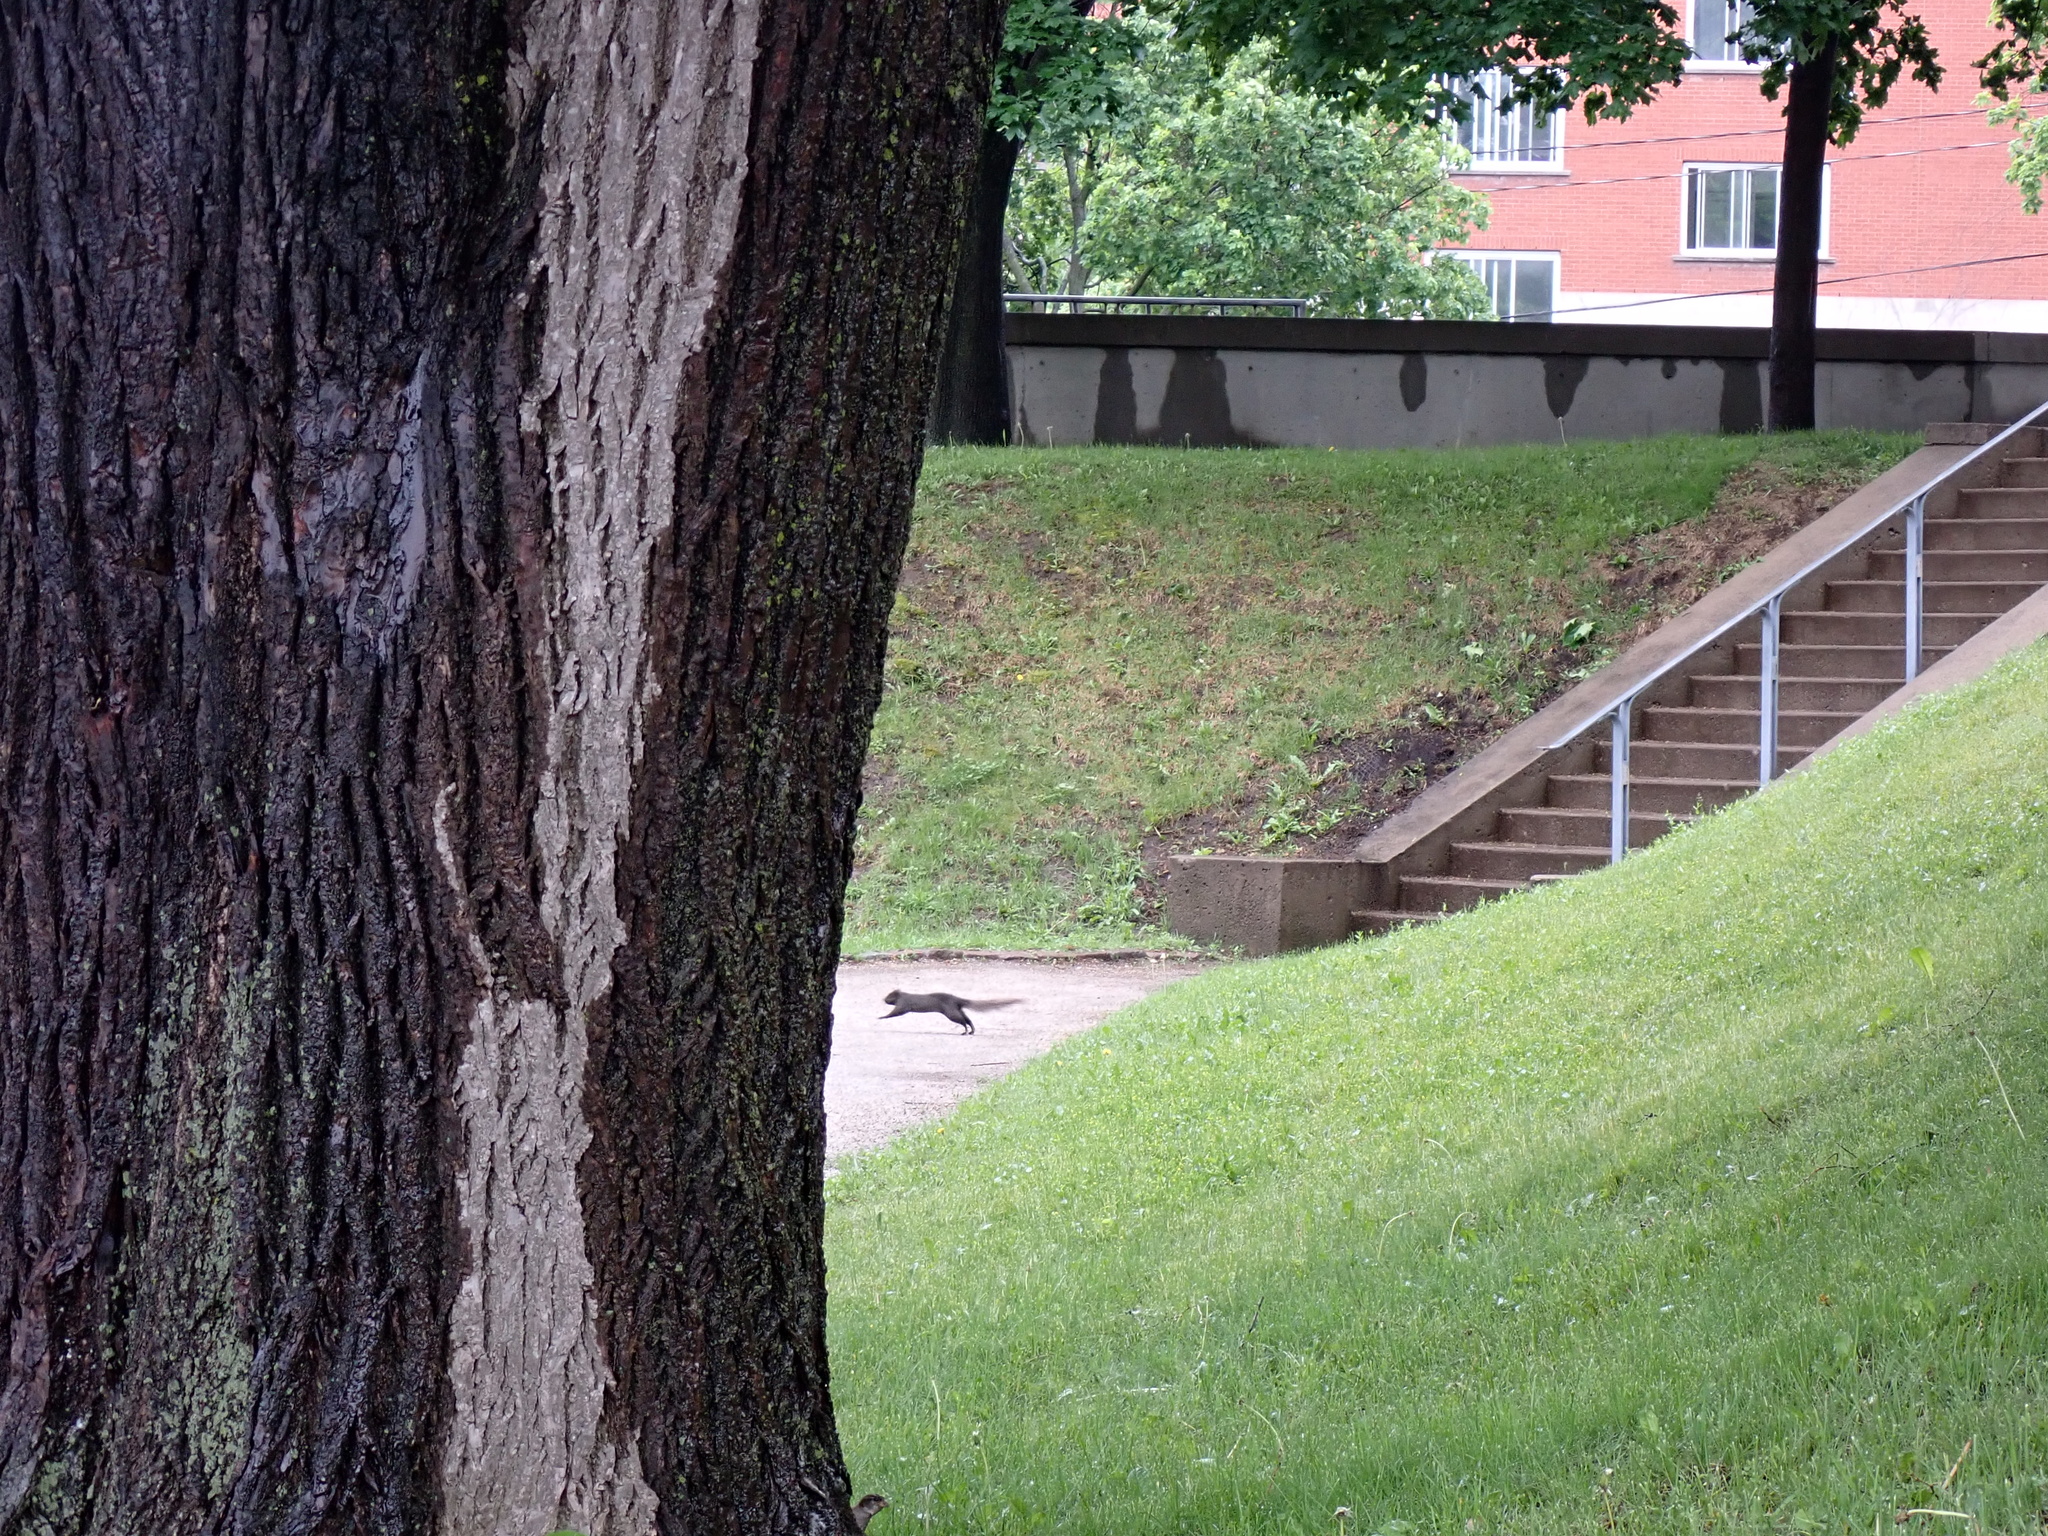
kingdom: Animalia
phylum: Chordata
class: Mammalia
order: Rodentia
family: Sciuridae
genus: Sciurus
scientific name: Sciurus carolinensis
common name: Eastern gray squirrel
